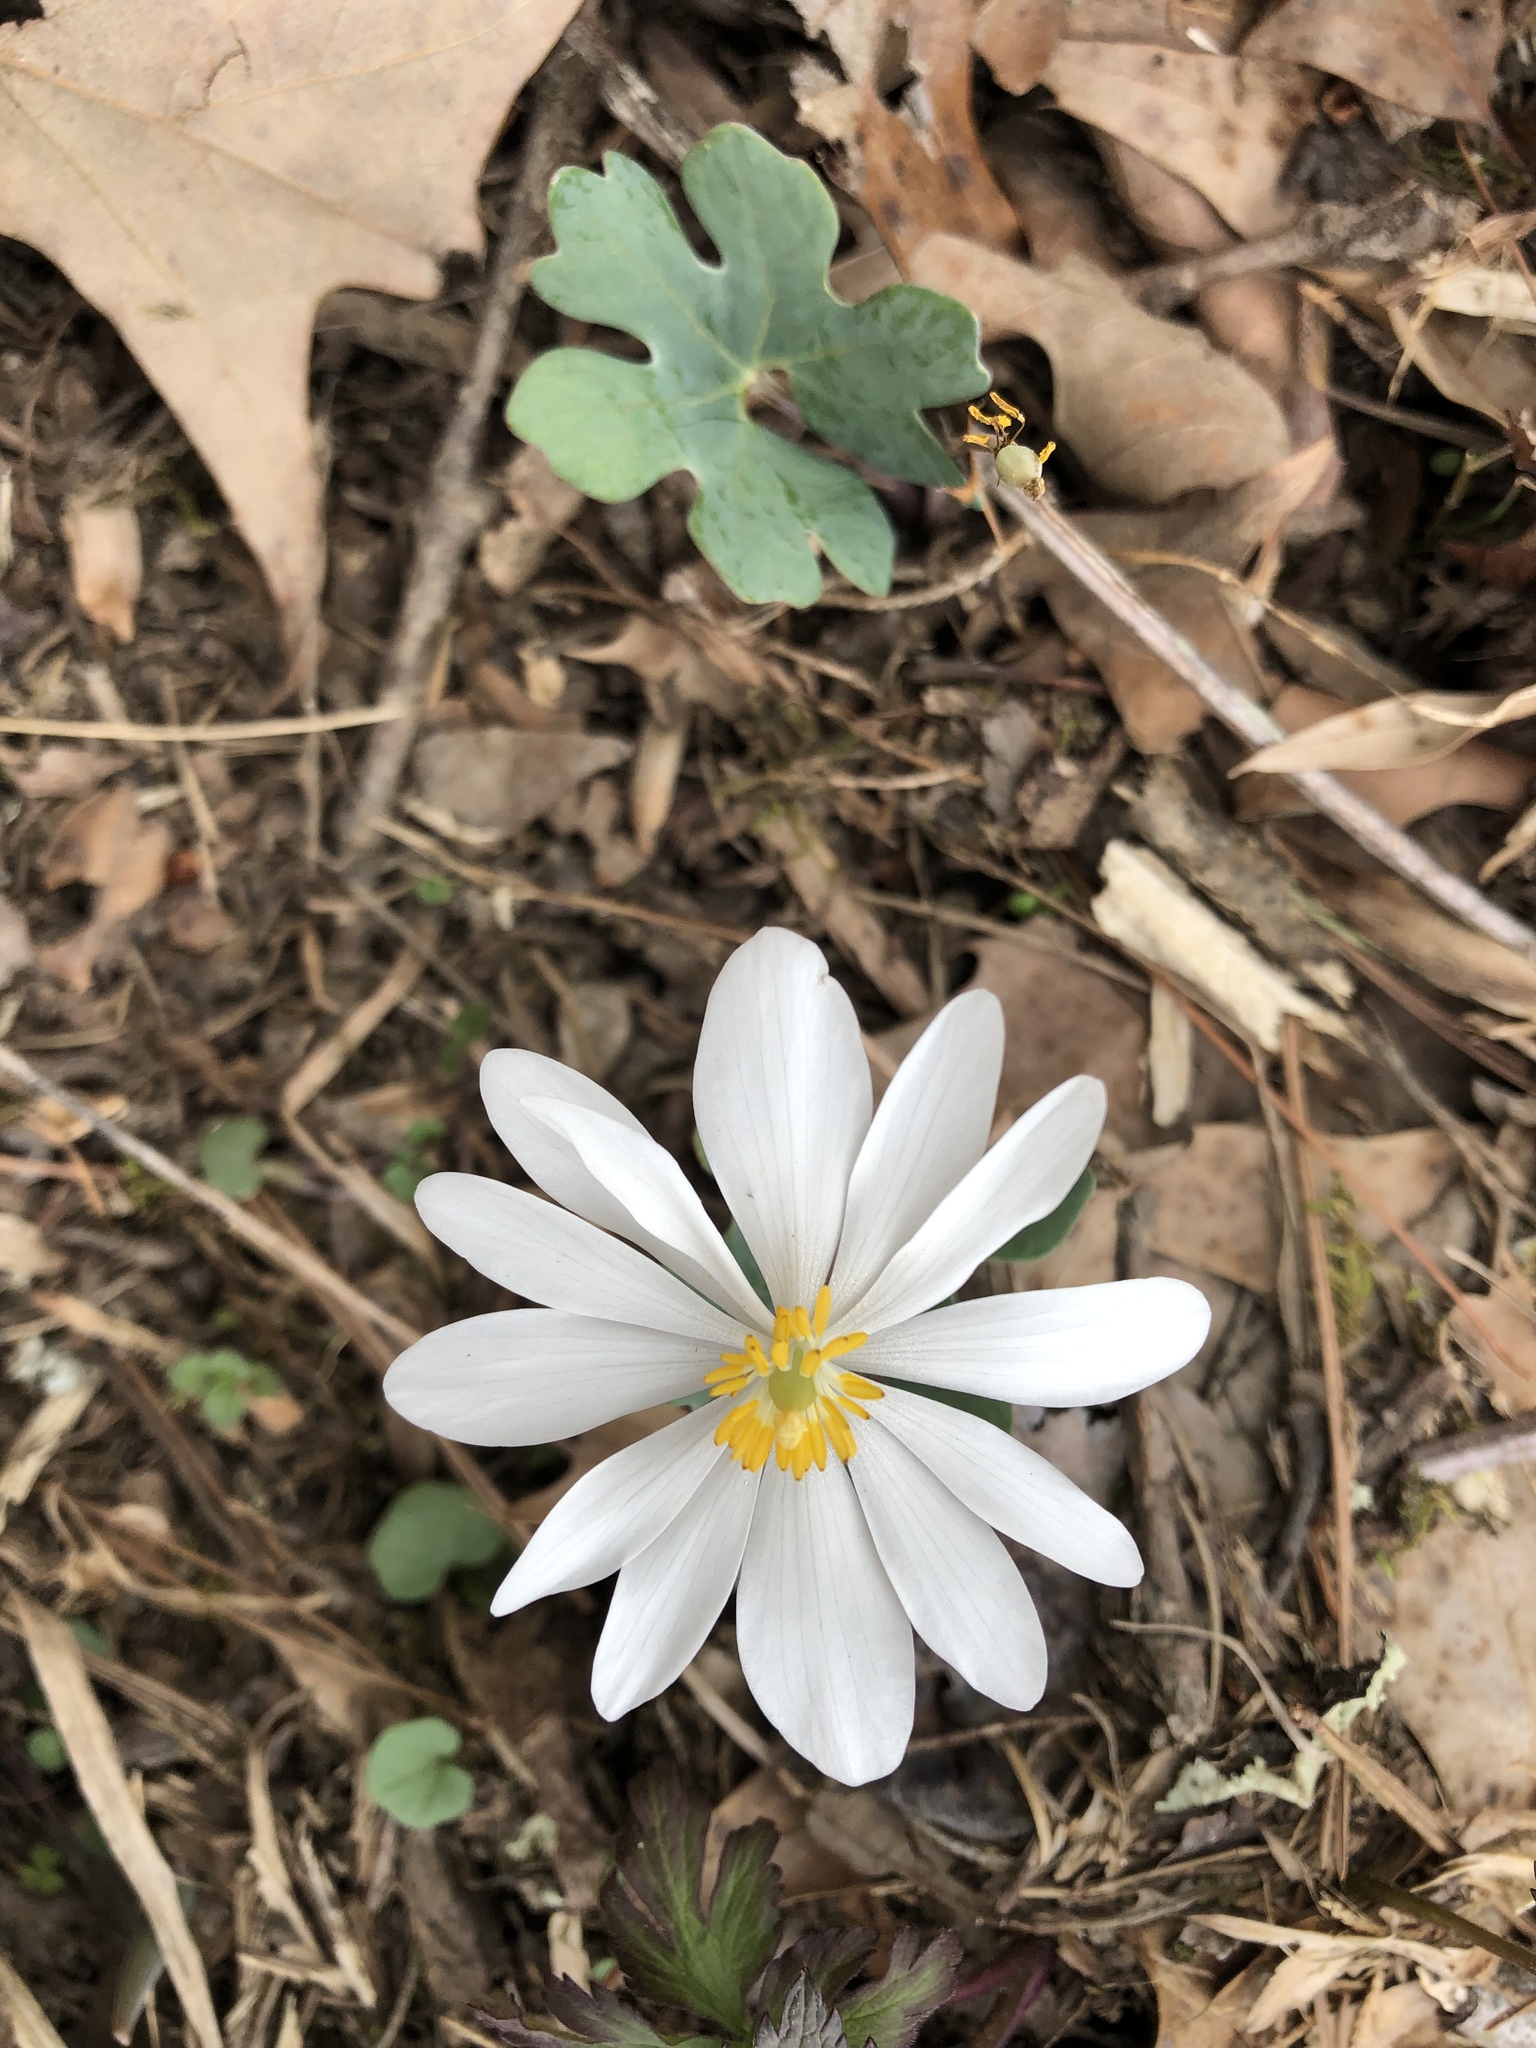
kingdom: Plantae
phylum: Tracheophyta
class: Magnoliopsida
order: Ranunculales
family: Papaveraceae
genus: Sanguinaria
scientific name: Sanguinaria canadensis
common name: Bloodroot
